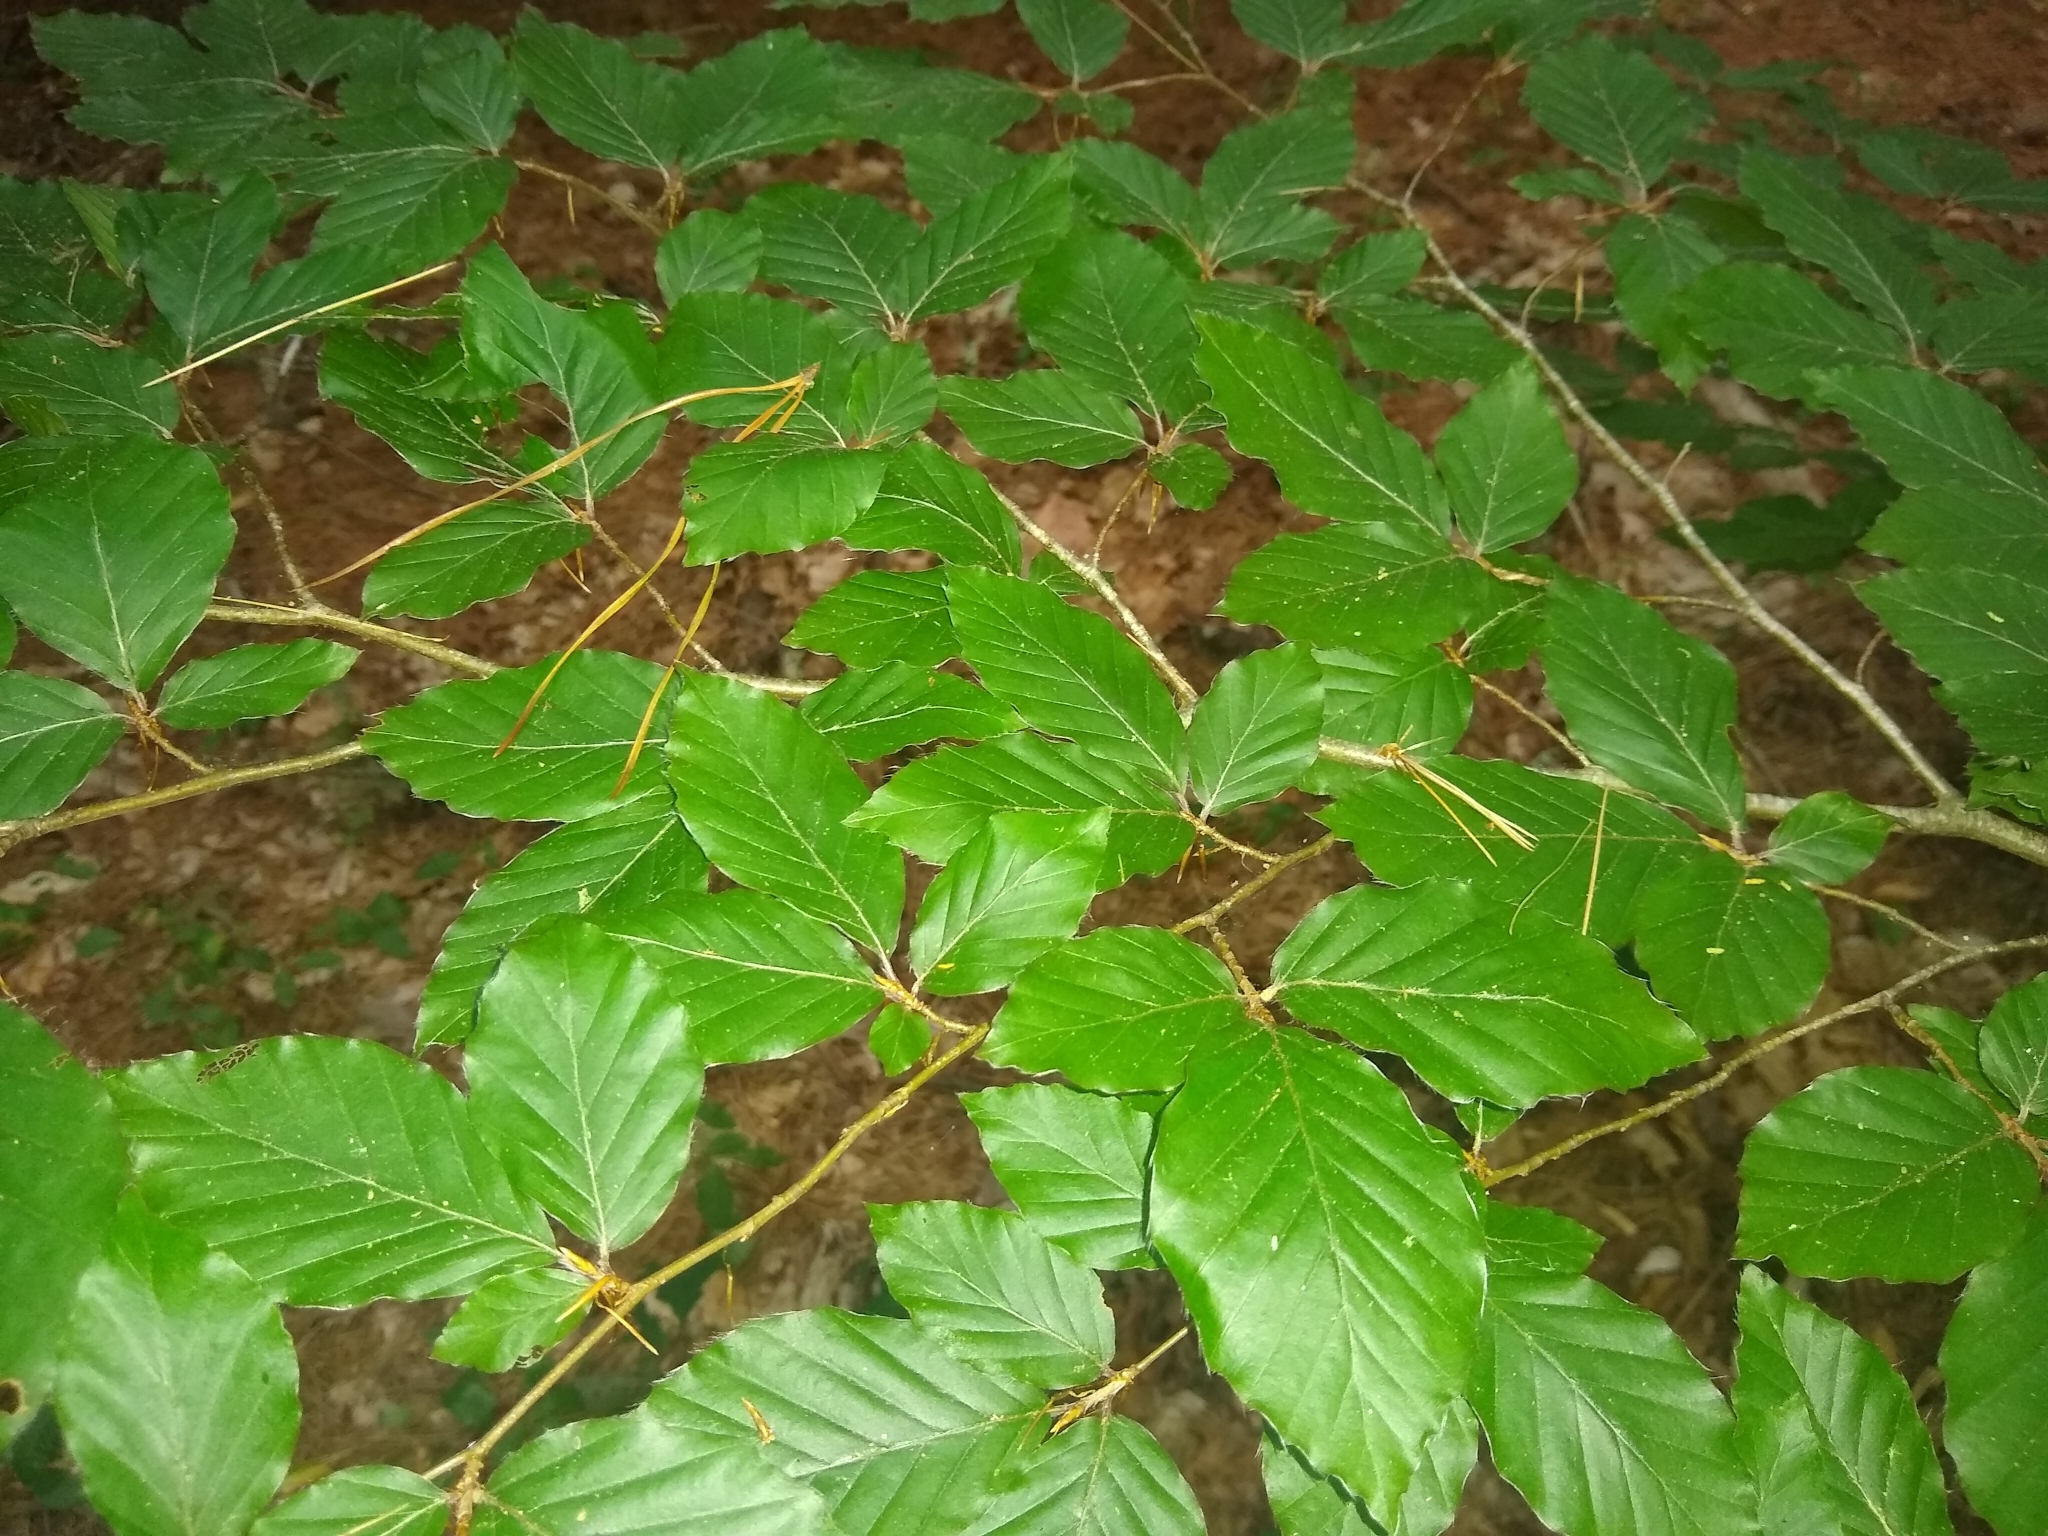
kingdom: Plantae
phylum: Tracheophyta
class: Magnoliopsida
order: Fagales
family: Fagaceae
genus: Fagus
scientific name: Fagus sylvatica
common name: Beech
